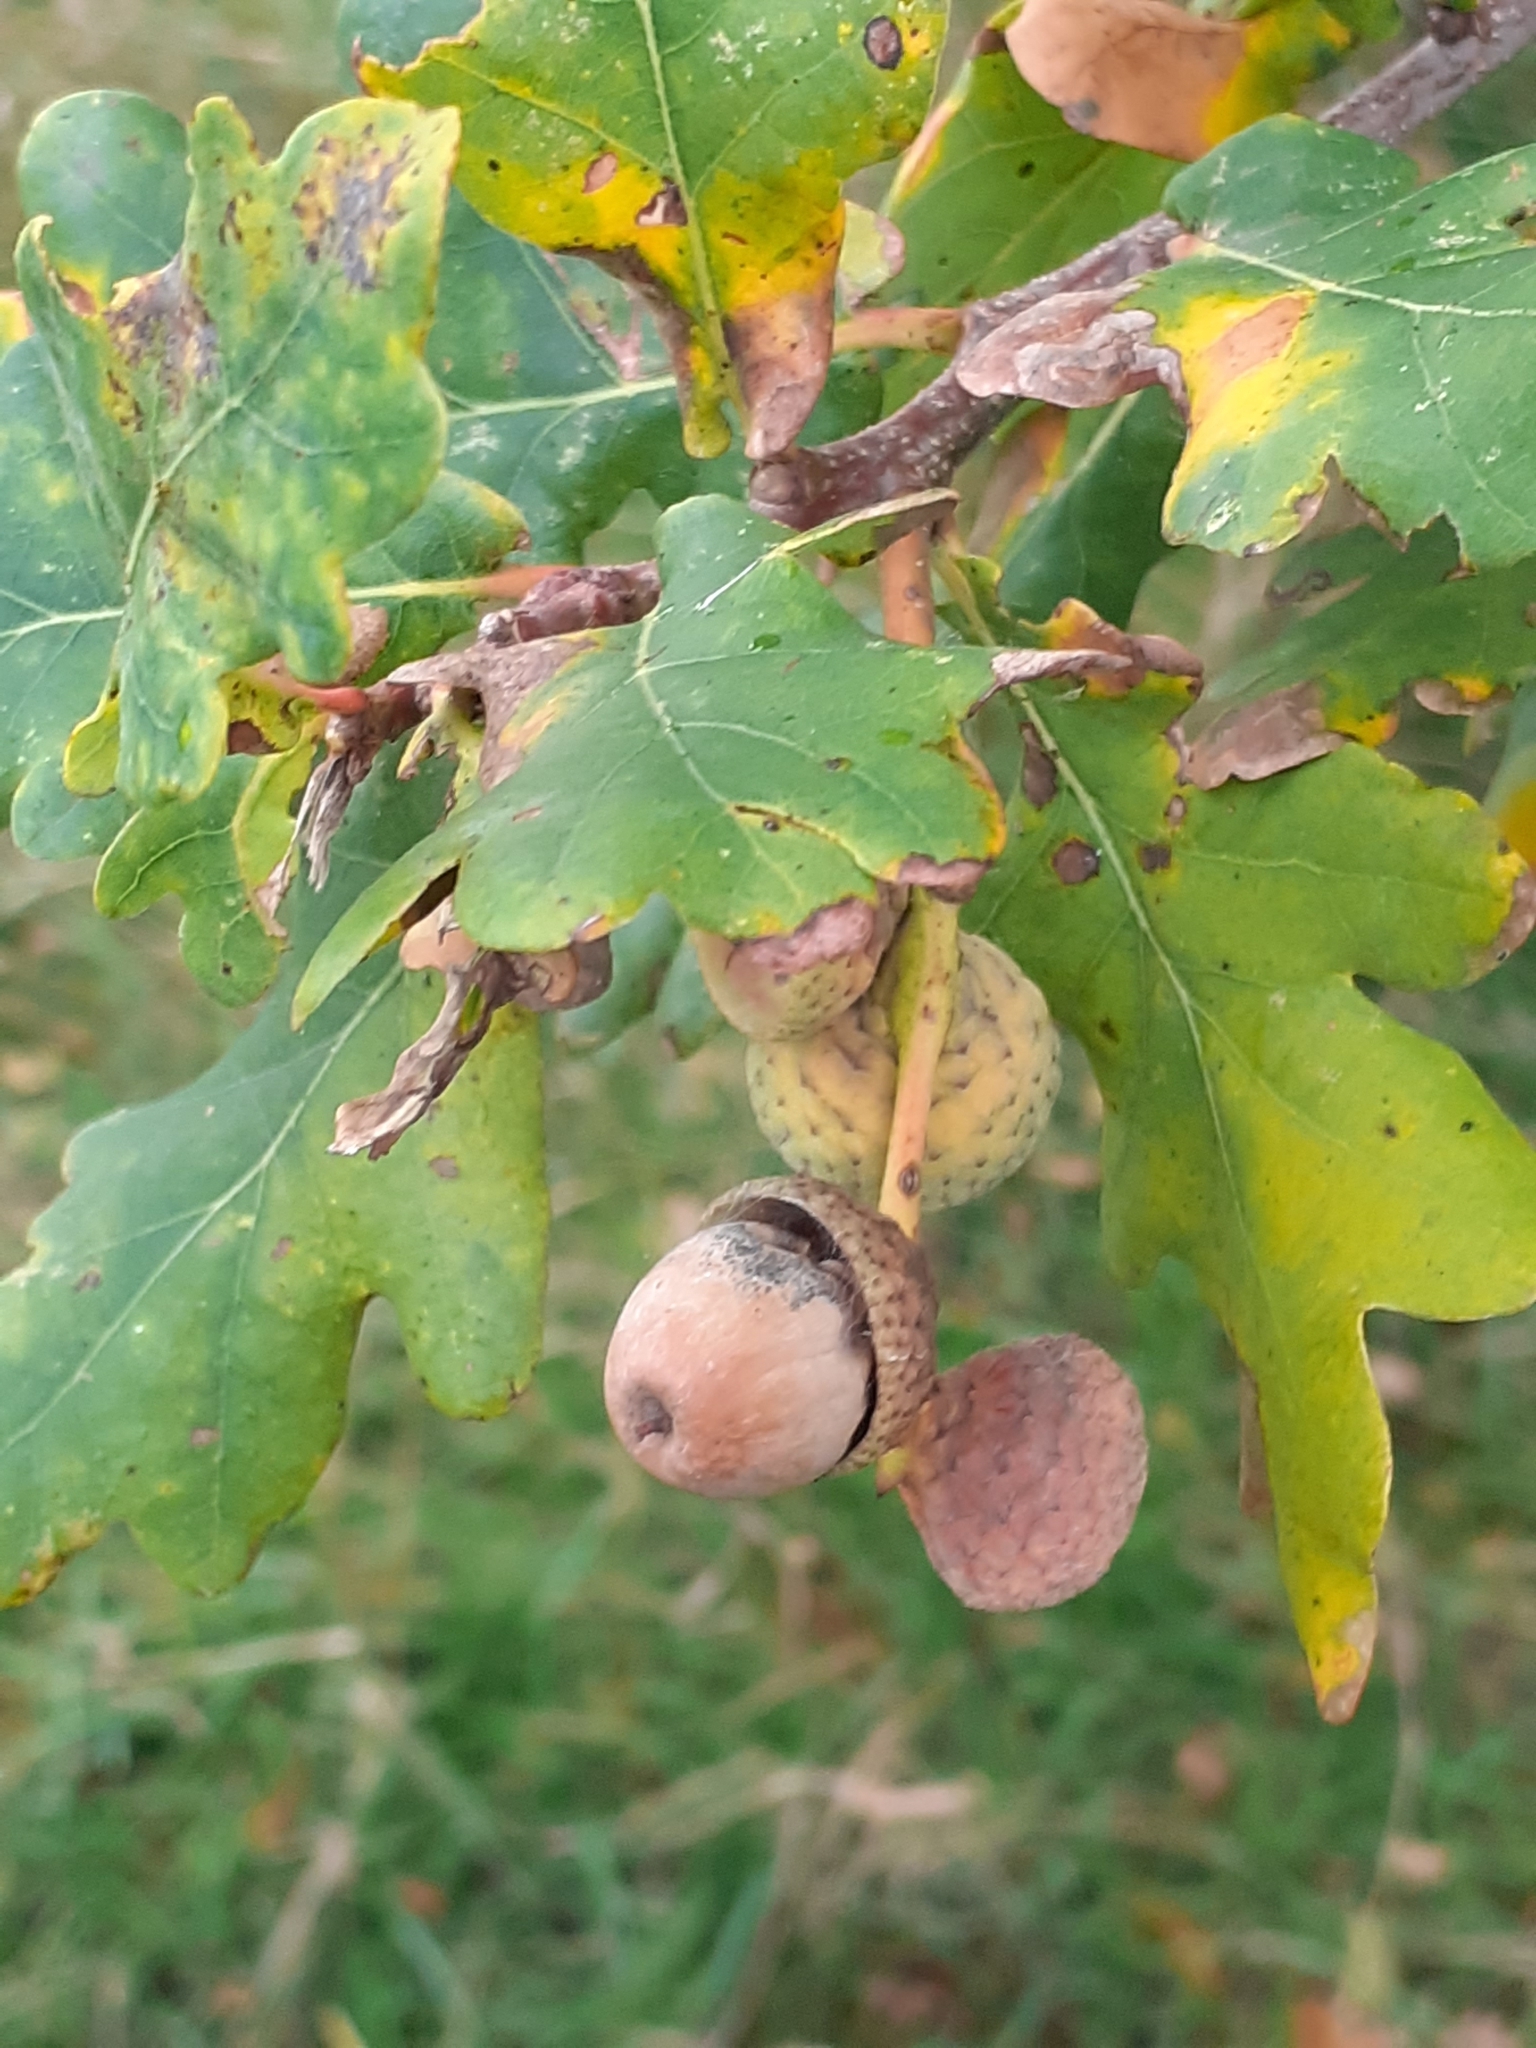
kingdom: Plantae
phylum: Tracheophyta
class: Magnoliopsida
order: Fagales
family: Fagaceae
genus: Quercus
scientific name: Quercus robur
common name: Pedunculate oak
